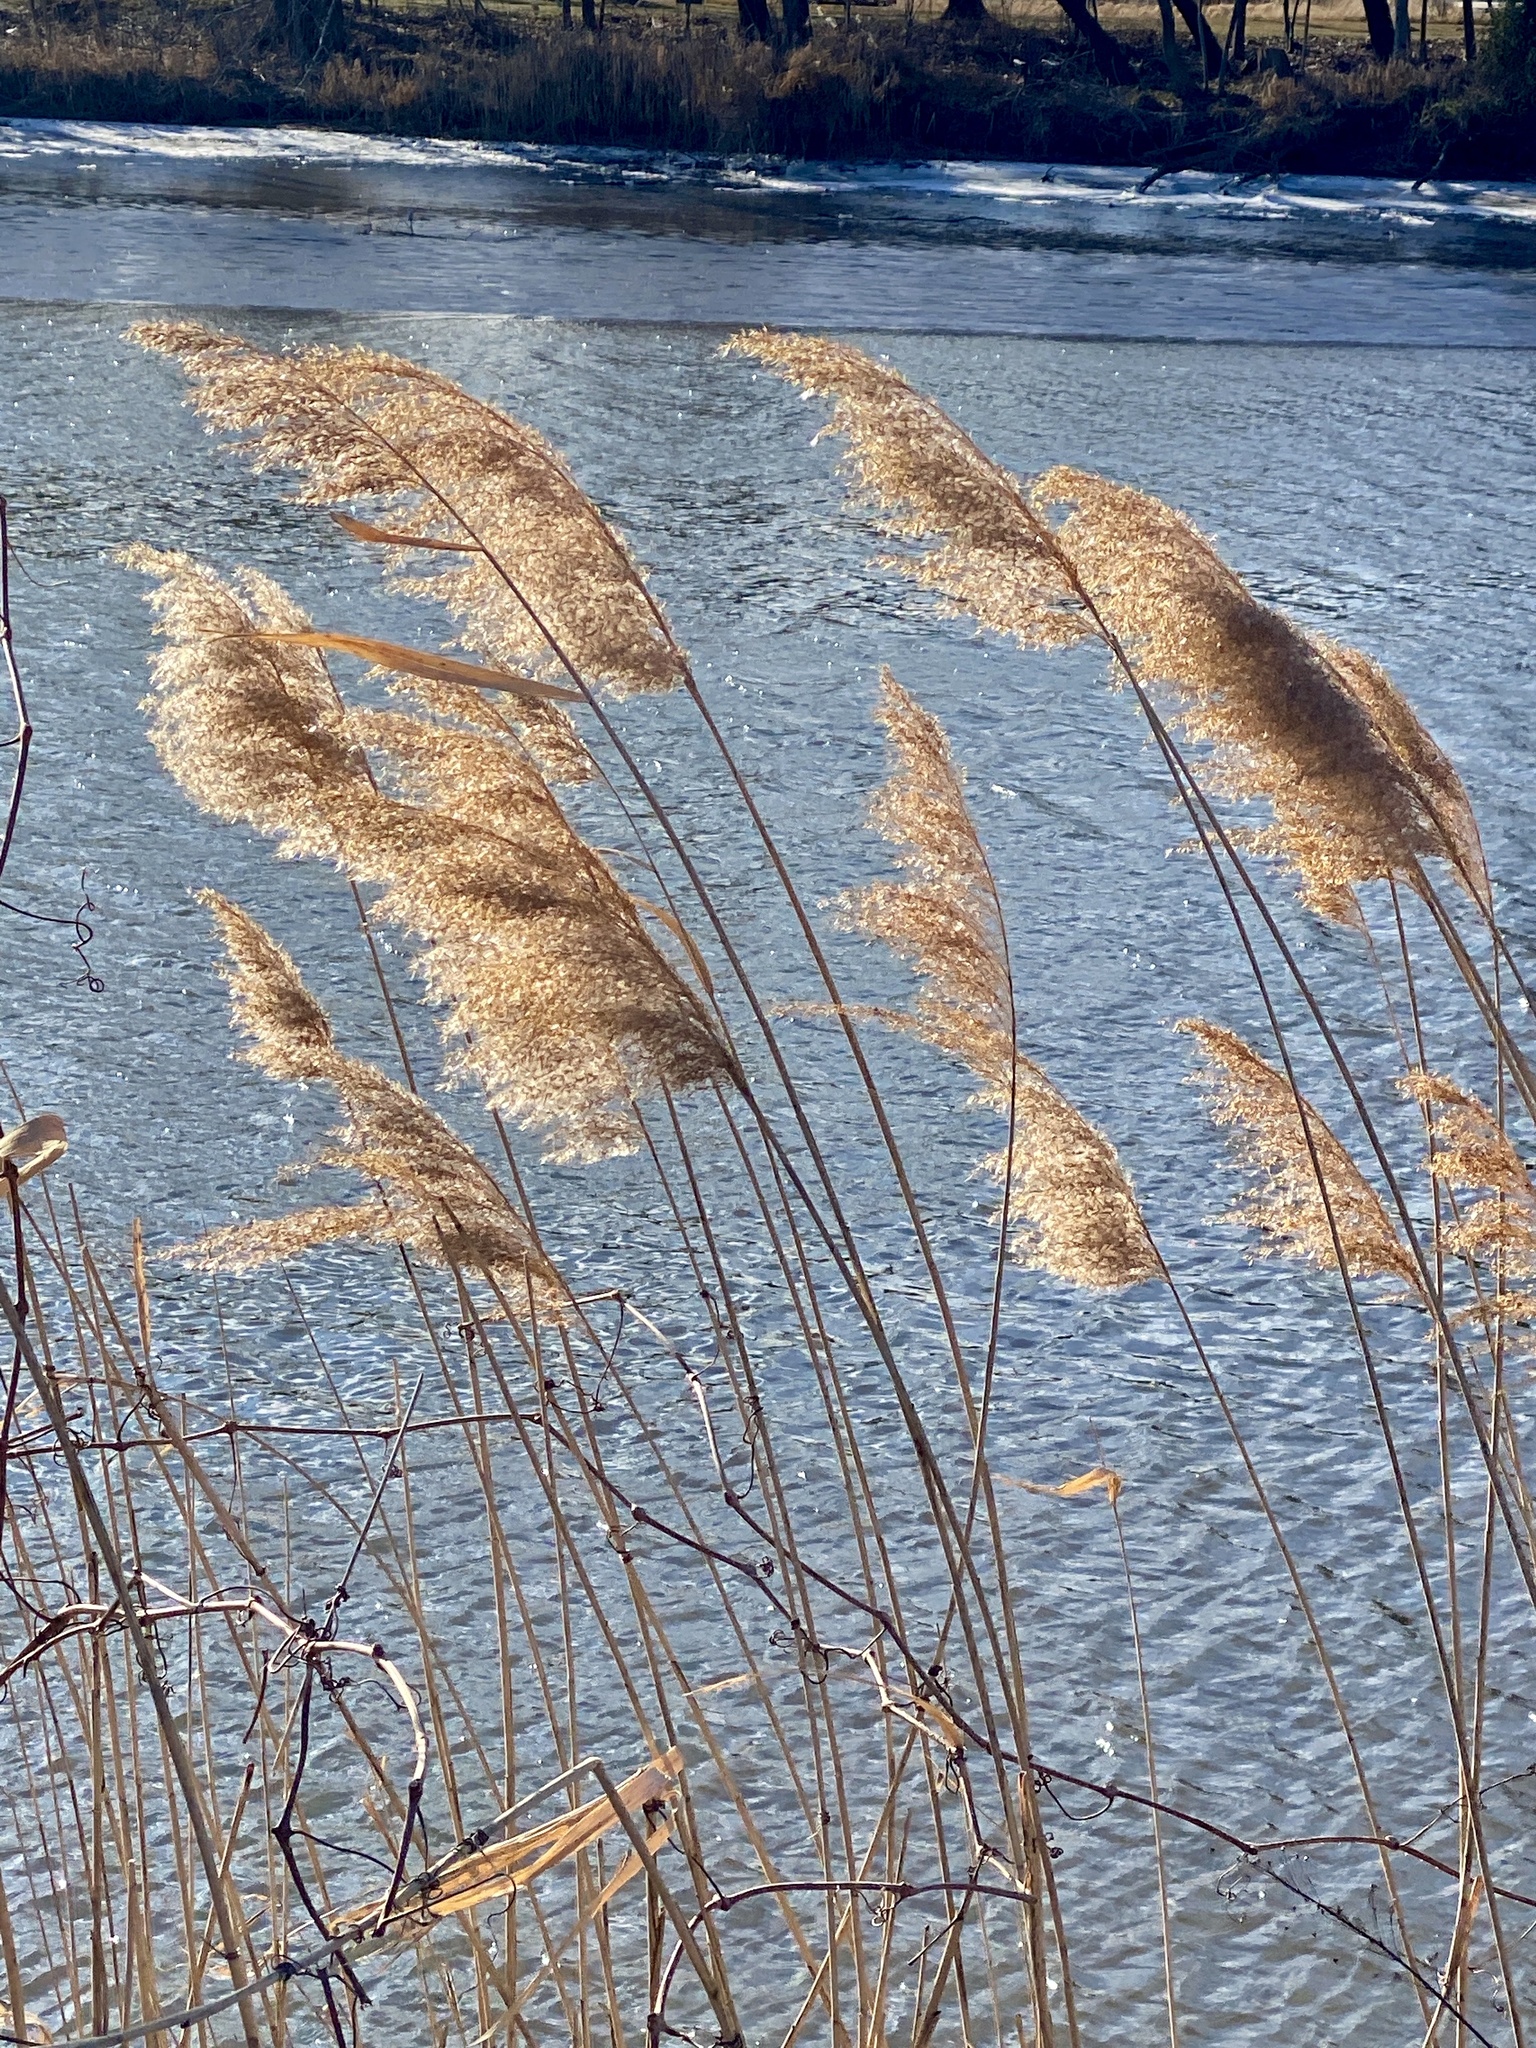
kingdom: Plantae
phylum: Tracheophyta
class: Liliopsida
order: Poales
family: Poaceae
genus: Phragmites
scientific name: Phragmites australis
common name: Common reed
